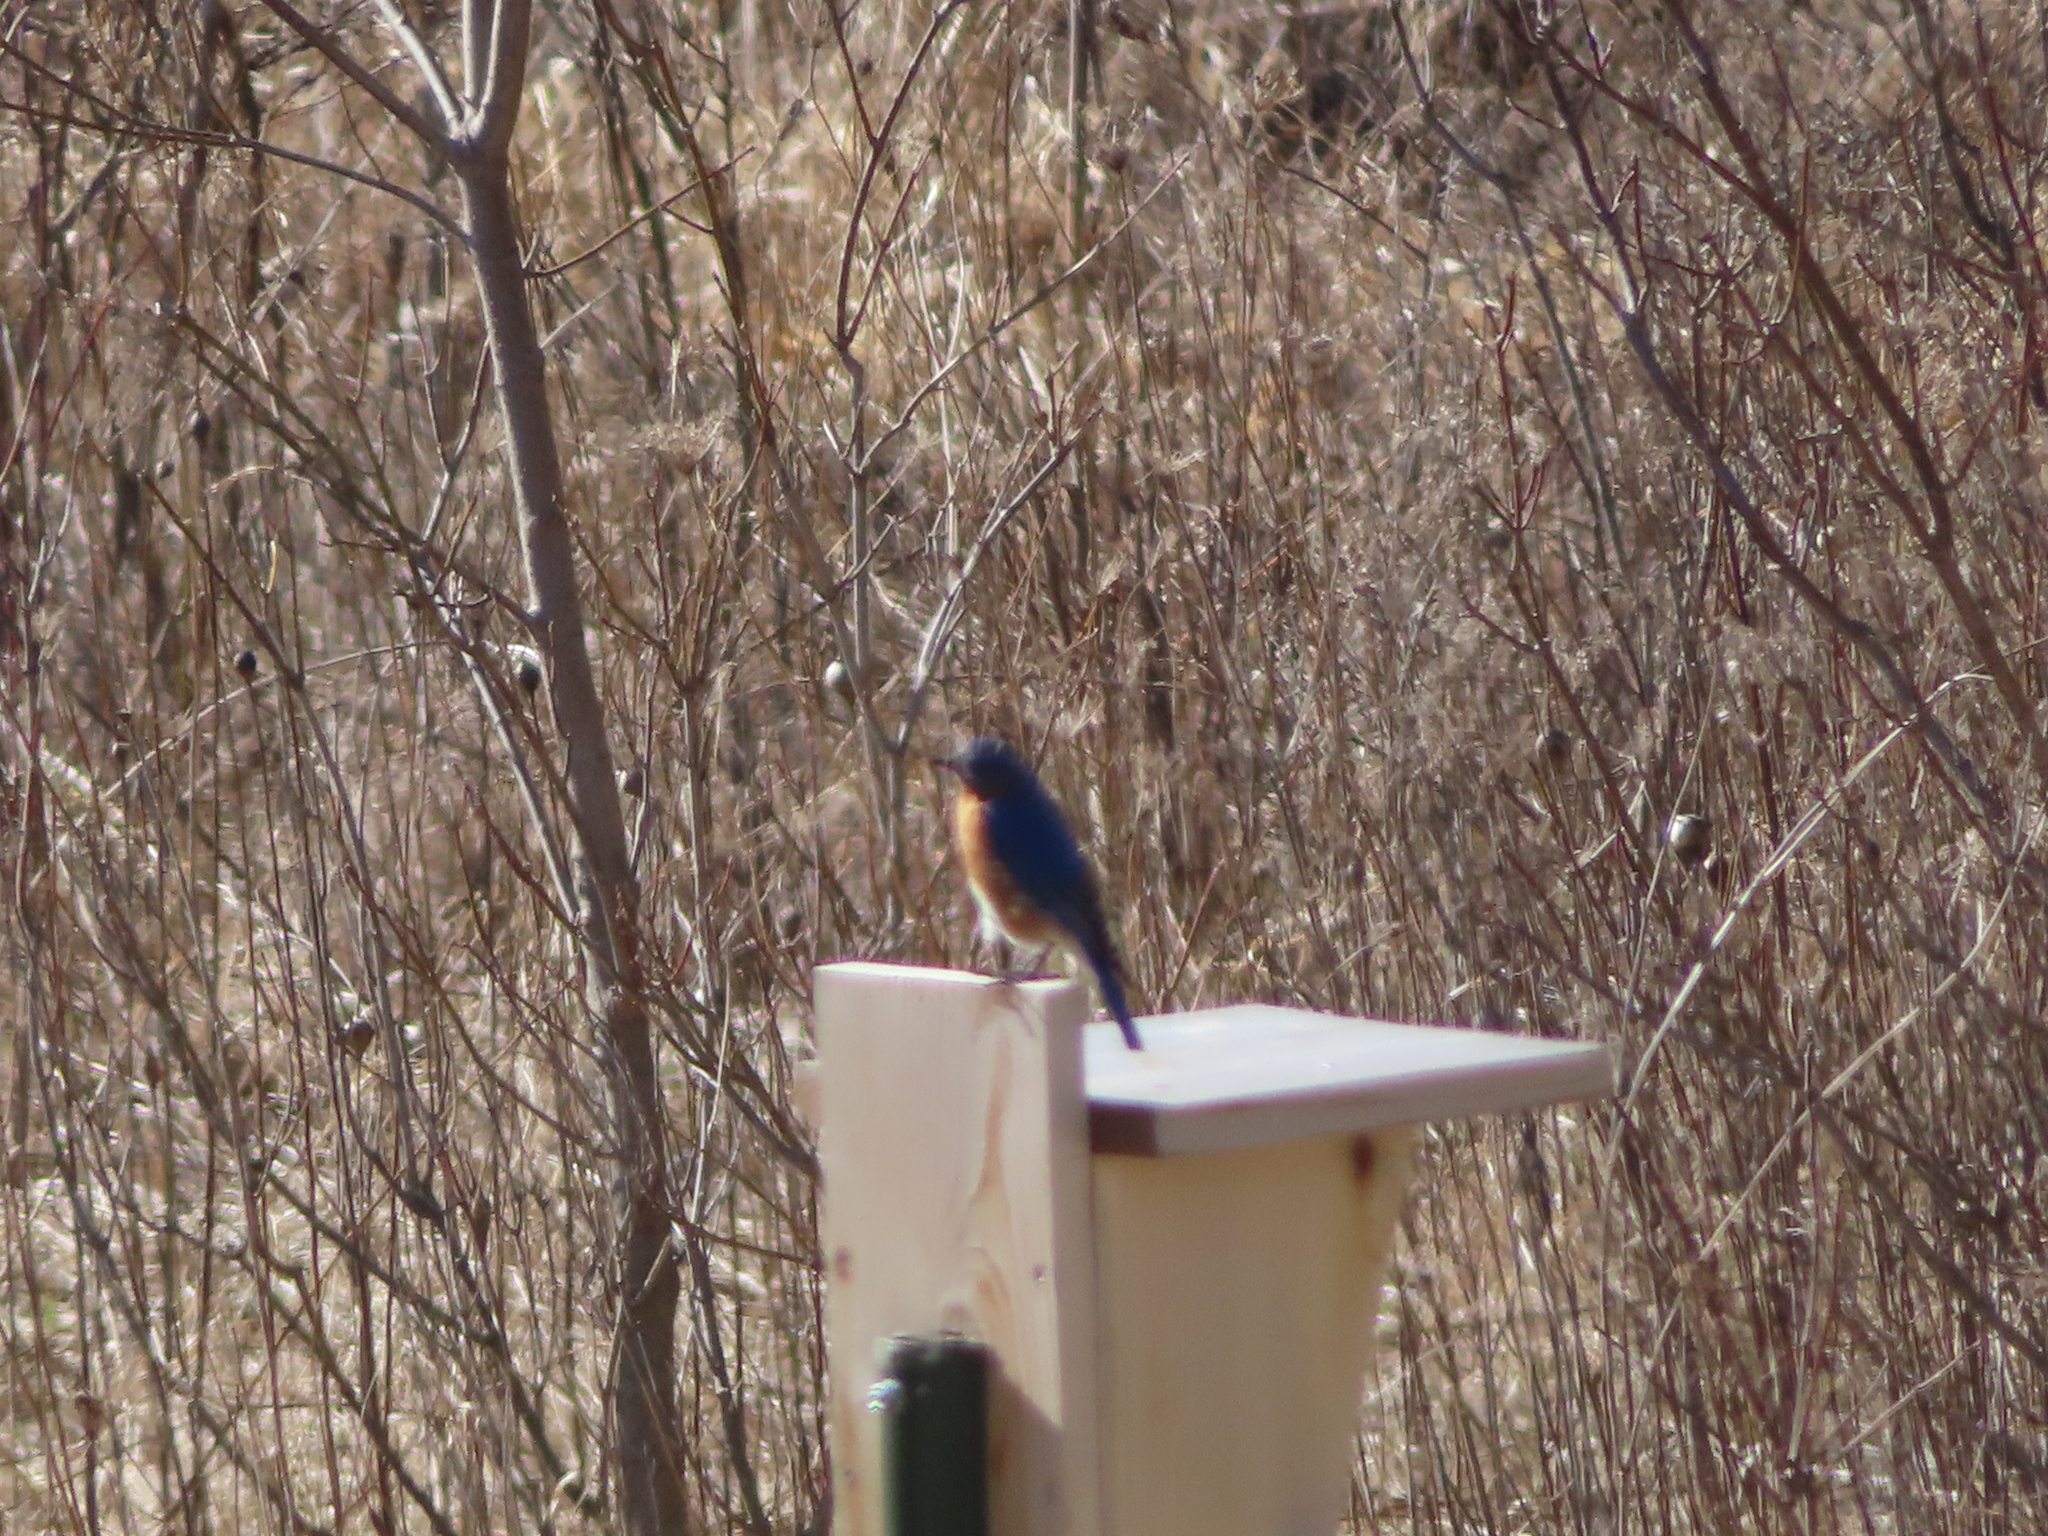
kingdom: Animalia
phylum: Chordata
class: Aves
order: Passeriformes
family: Turdidae
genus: Sialia
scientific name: Sialia sialis
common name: Eastern bluebird
